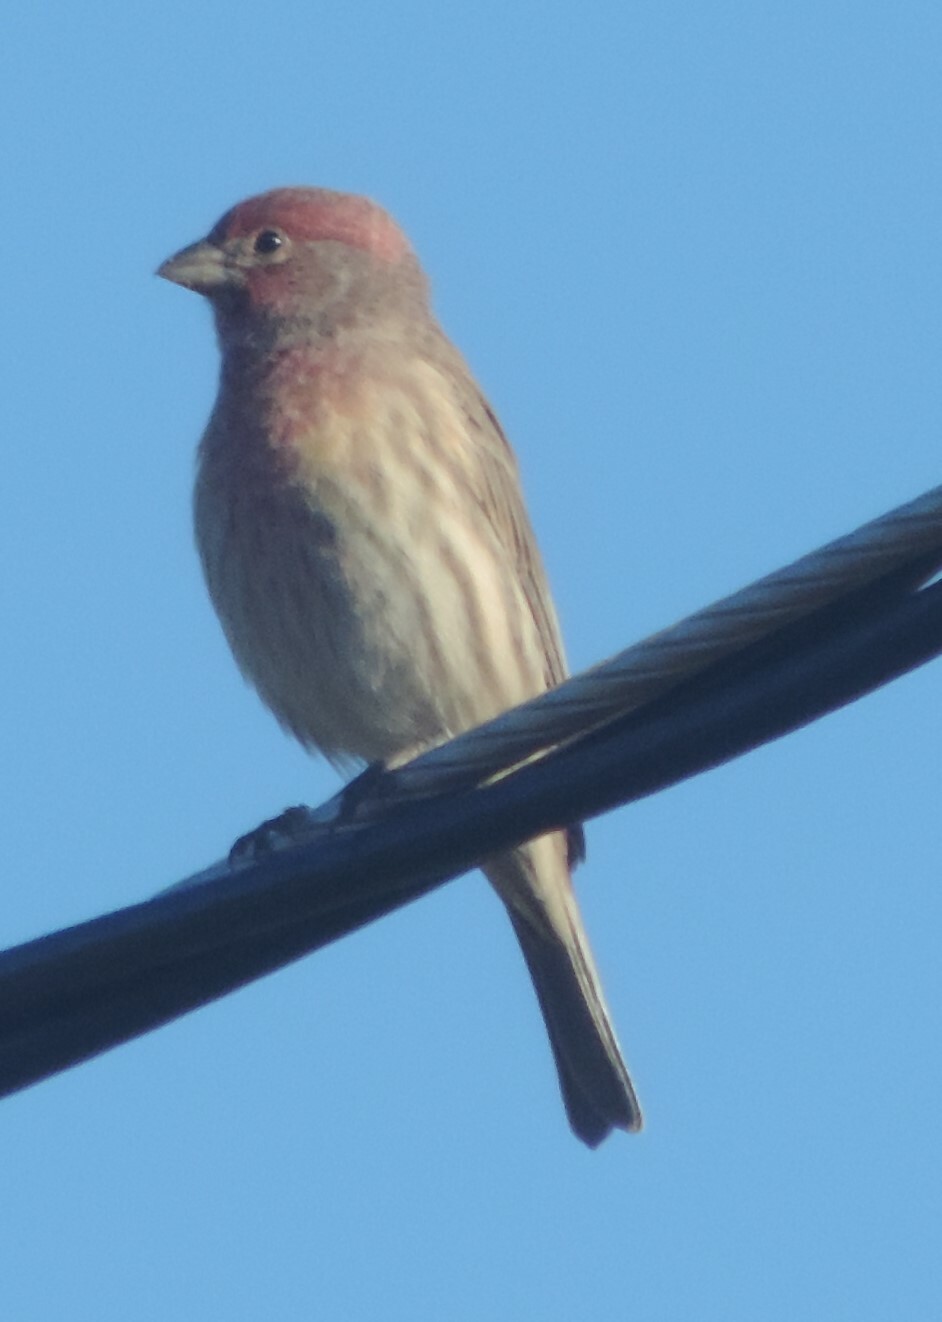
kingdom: Animalia
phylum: Chordata
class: Aves
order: Passeriformes
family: Fringillidae
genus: Haemorhous
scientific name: Haemorhous mexicanus
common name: House finch
